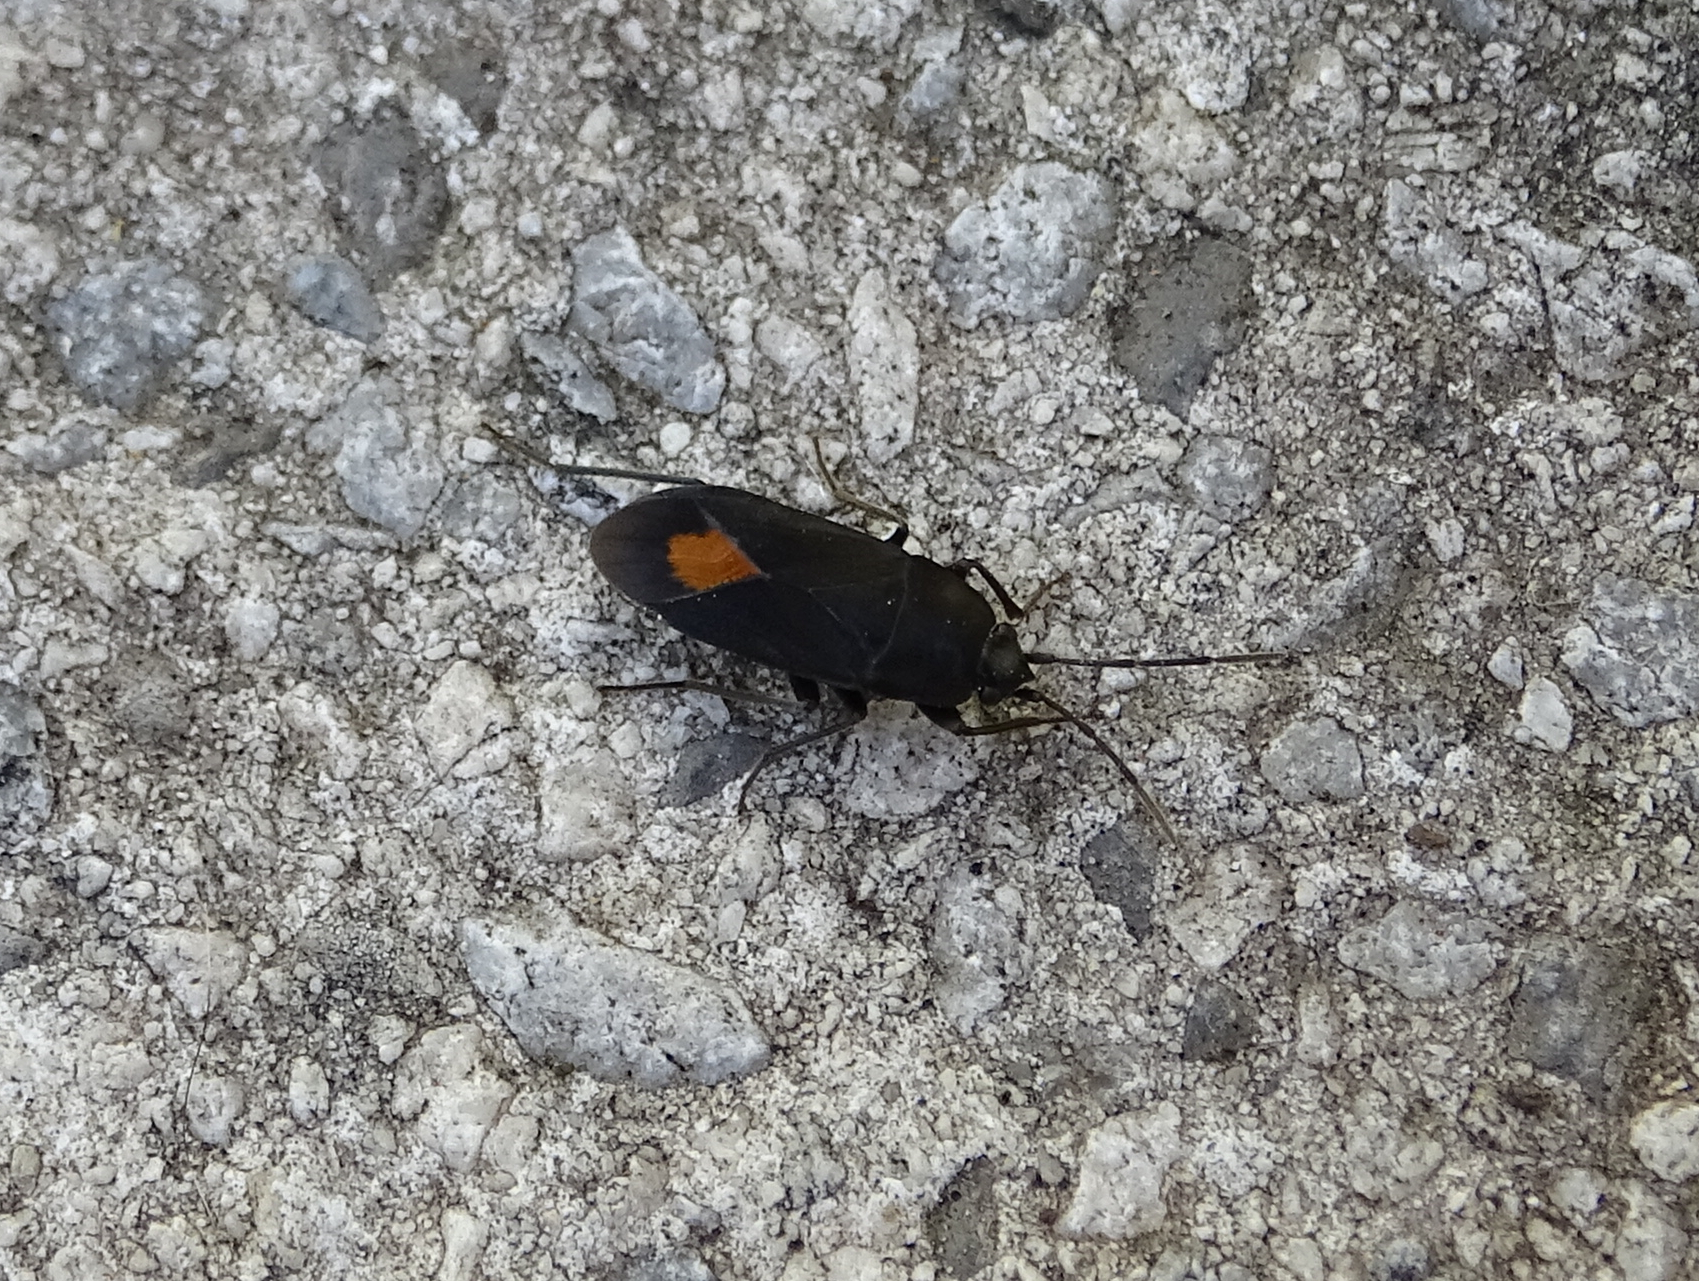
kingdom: Animalia
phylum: Arthropoda
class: Insecta
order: Hemiptera
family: Rhyparochromidae
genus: Aphanus
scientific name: Aphanus rolandri
